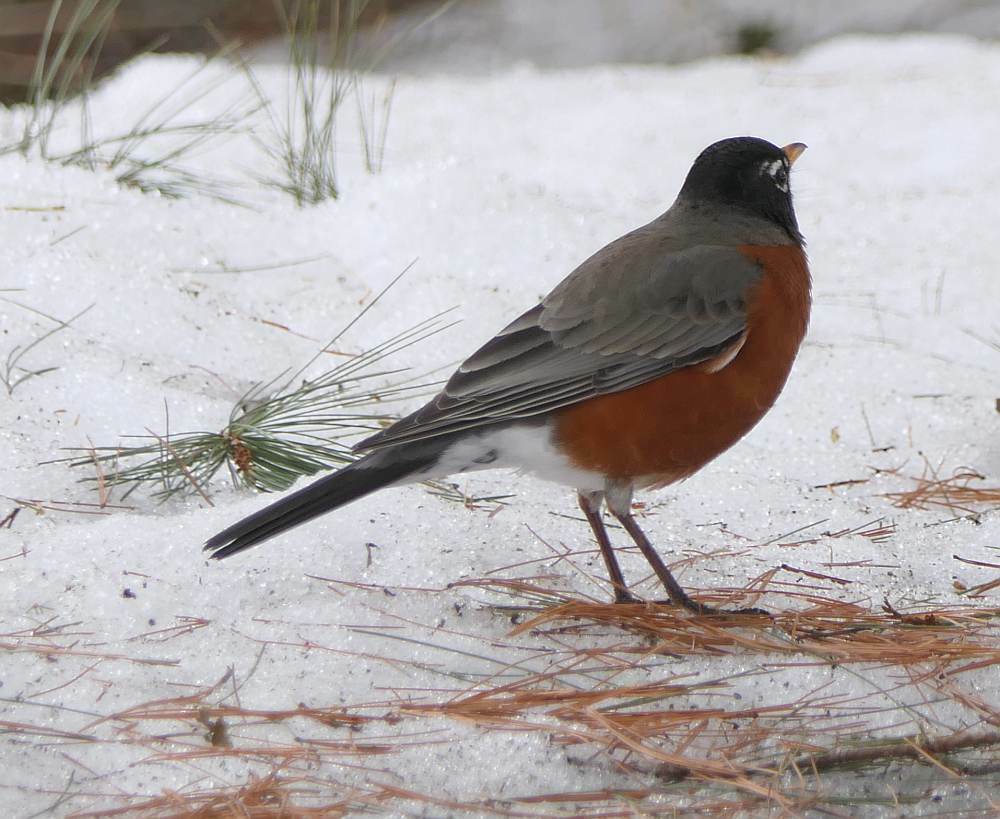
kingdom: Animalia
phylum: Chordata
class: Aves
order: Passeriformes
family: Turdidae
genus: Turdus
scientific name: Turdus migratorius
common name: American robin
